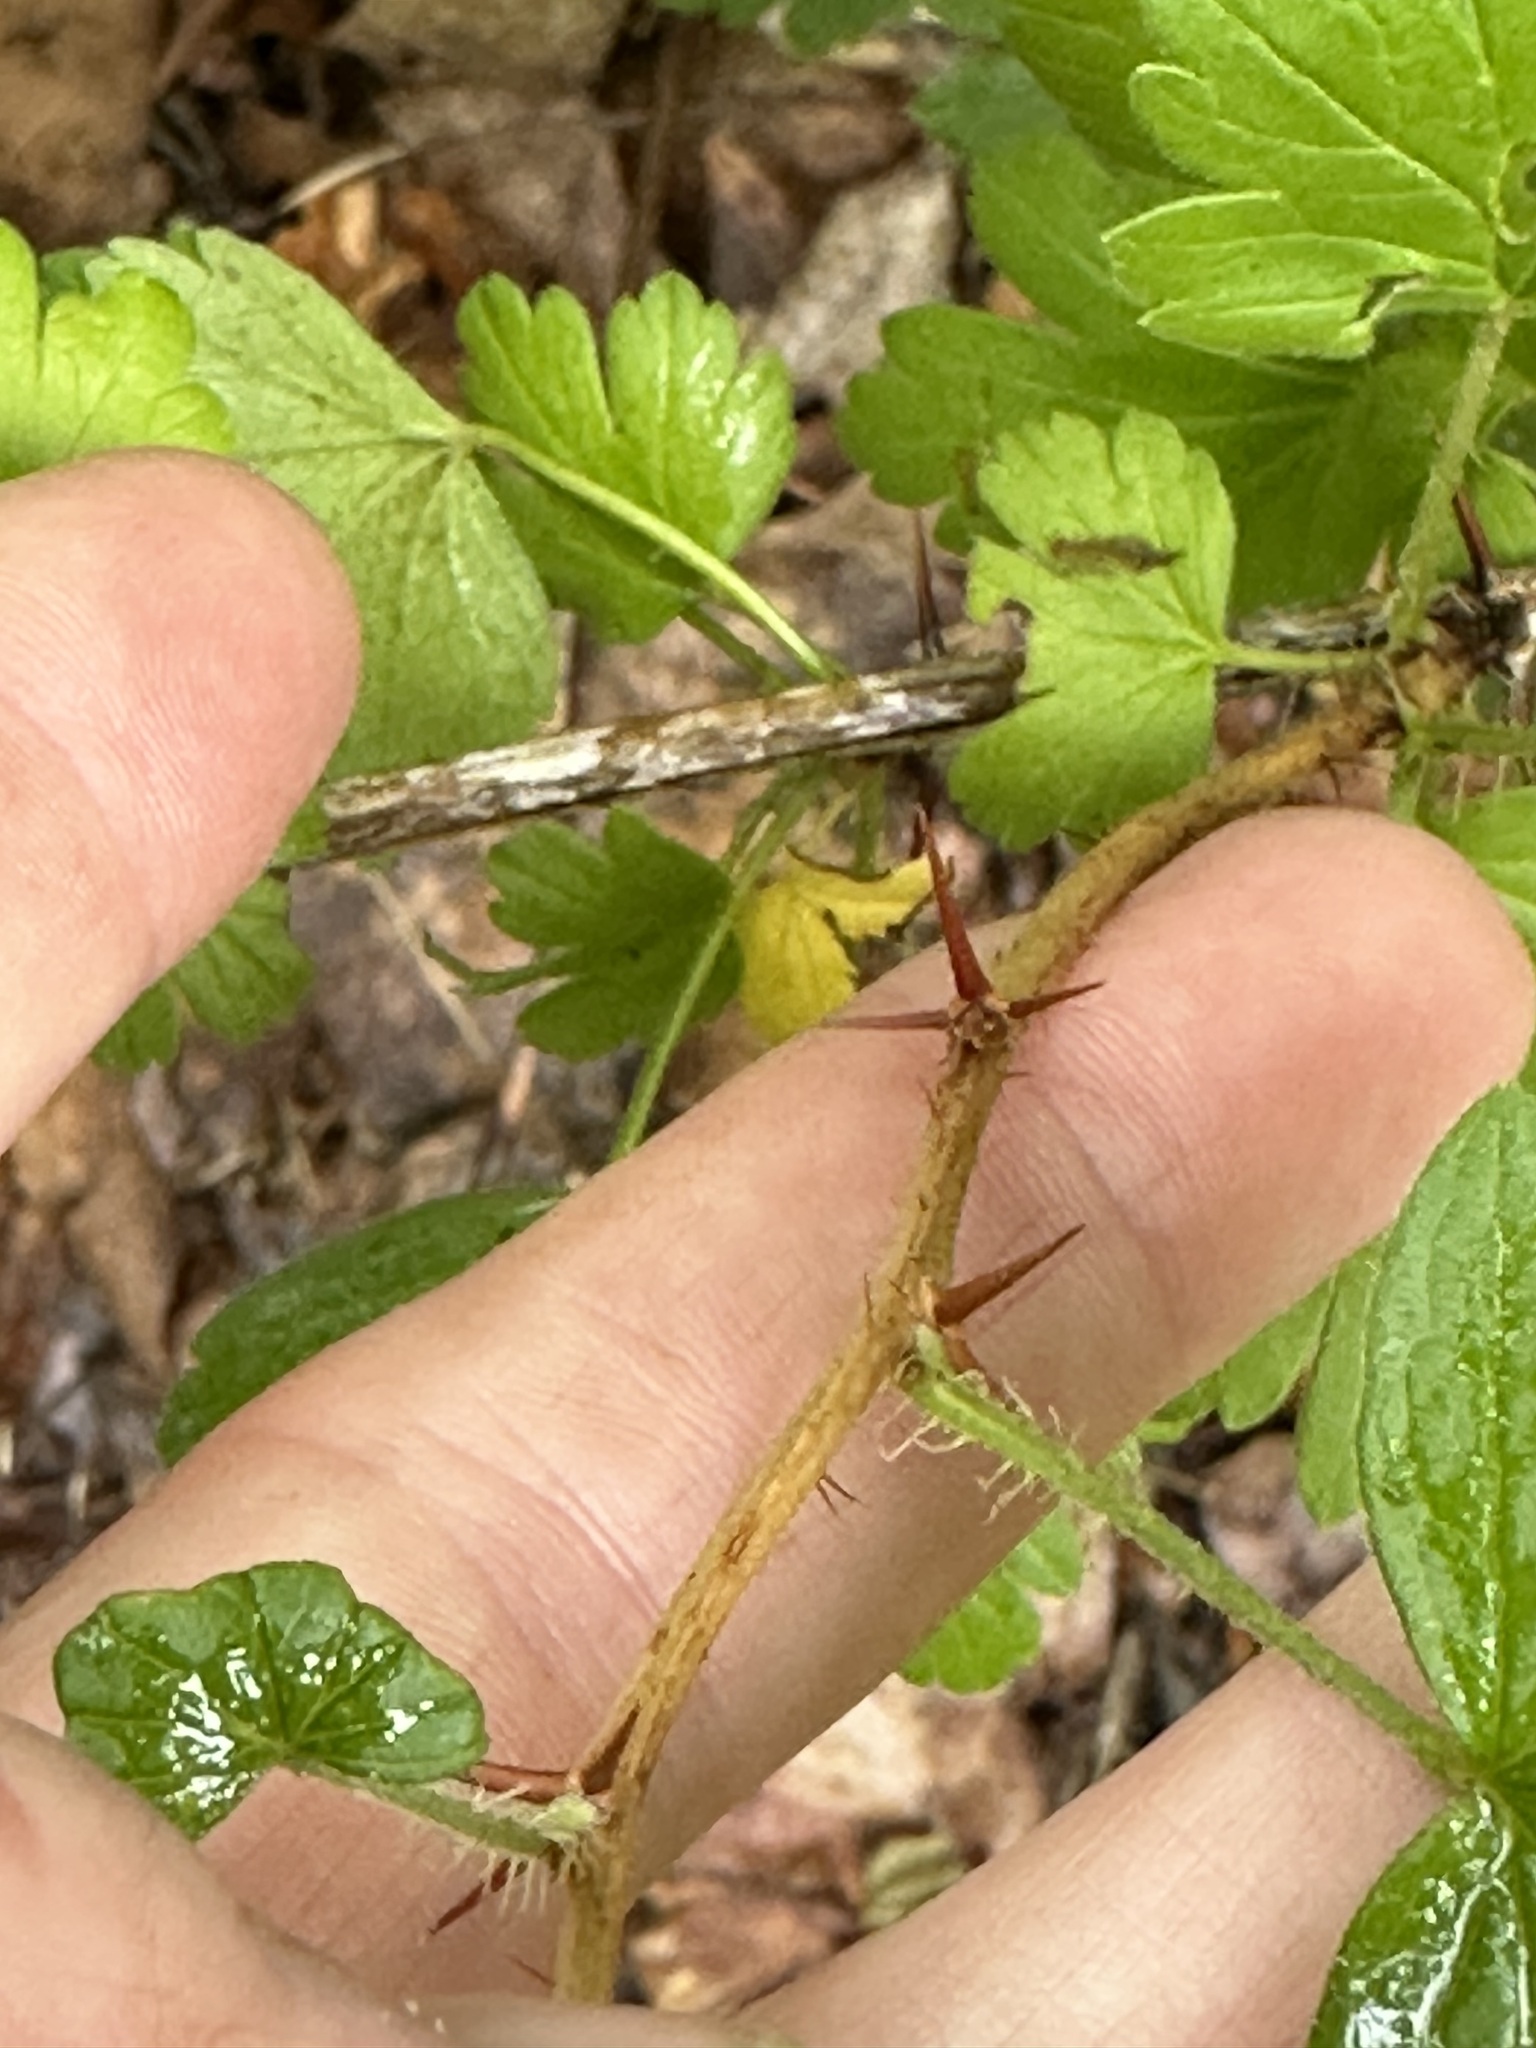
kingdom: Plantae
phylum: Tracheophyta
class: Magnoliopsida
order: Saxifragales
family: Grossulariaceae
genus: Ribes
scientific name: Ribes missouriense
